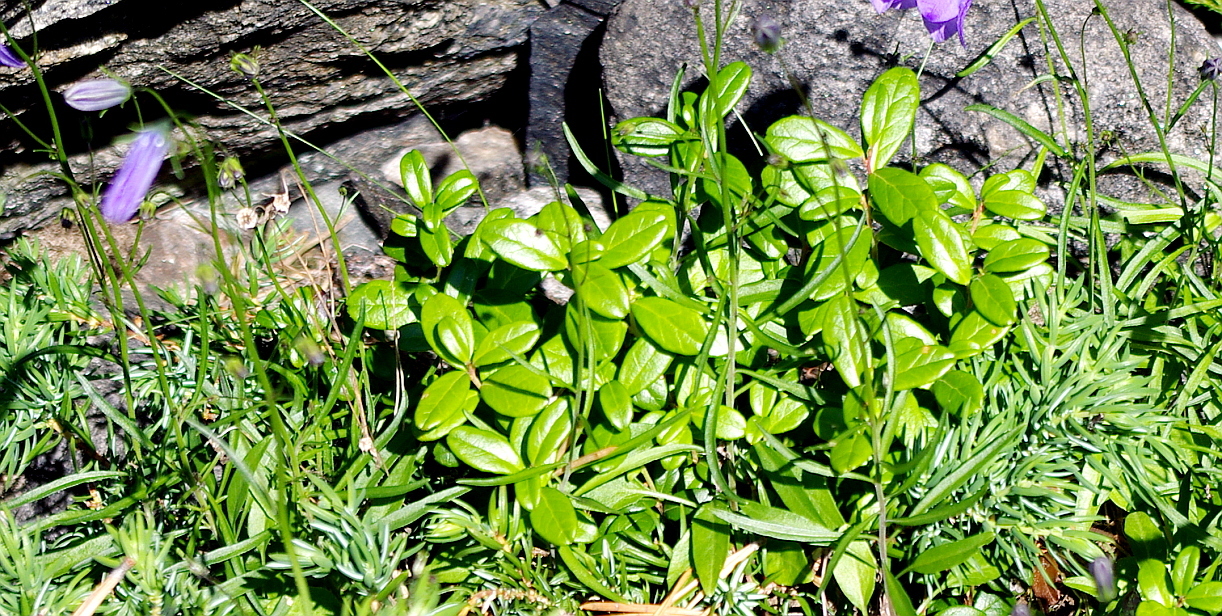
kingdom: Plantae
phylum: Tracheophyta
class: Magnoliopsida
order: Ericales
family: Ericaceae
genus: Vaccinium
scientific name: Vaccinium vitis-idaea
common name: Cowberry
